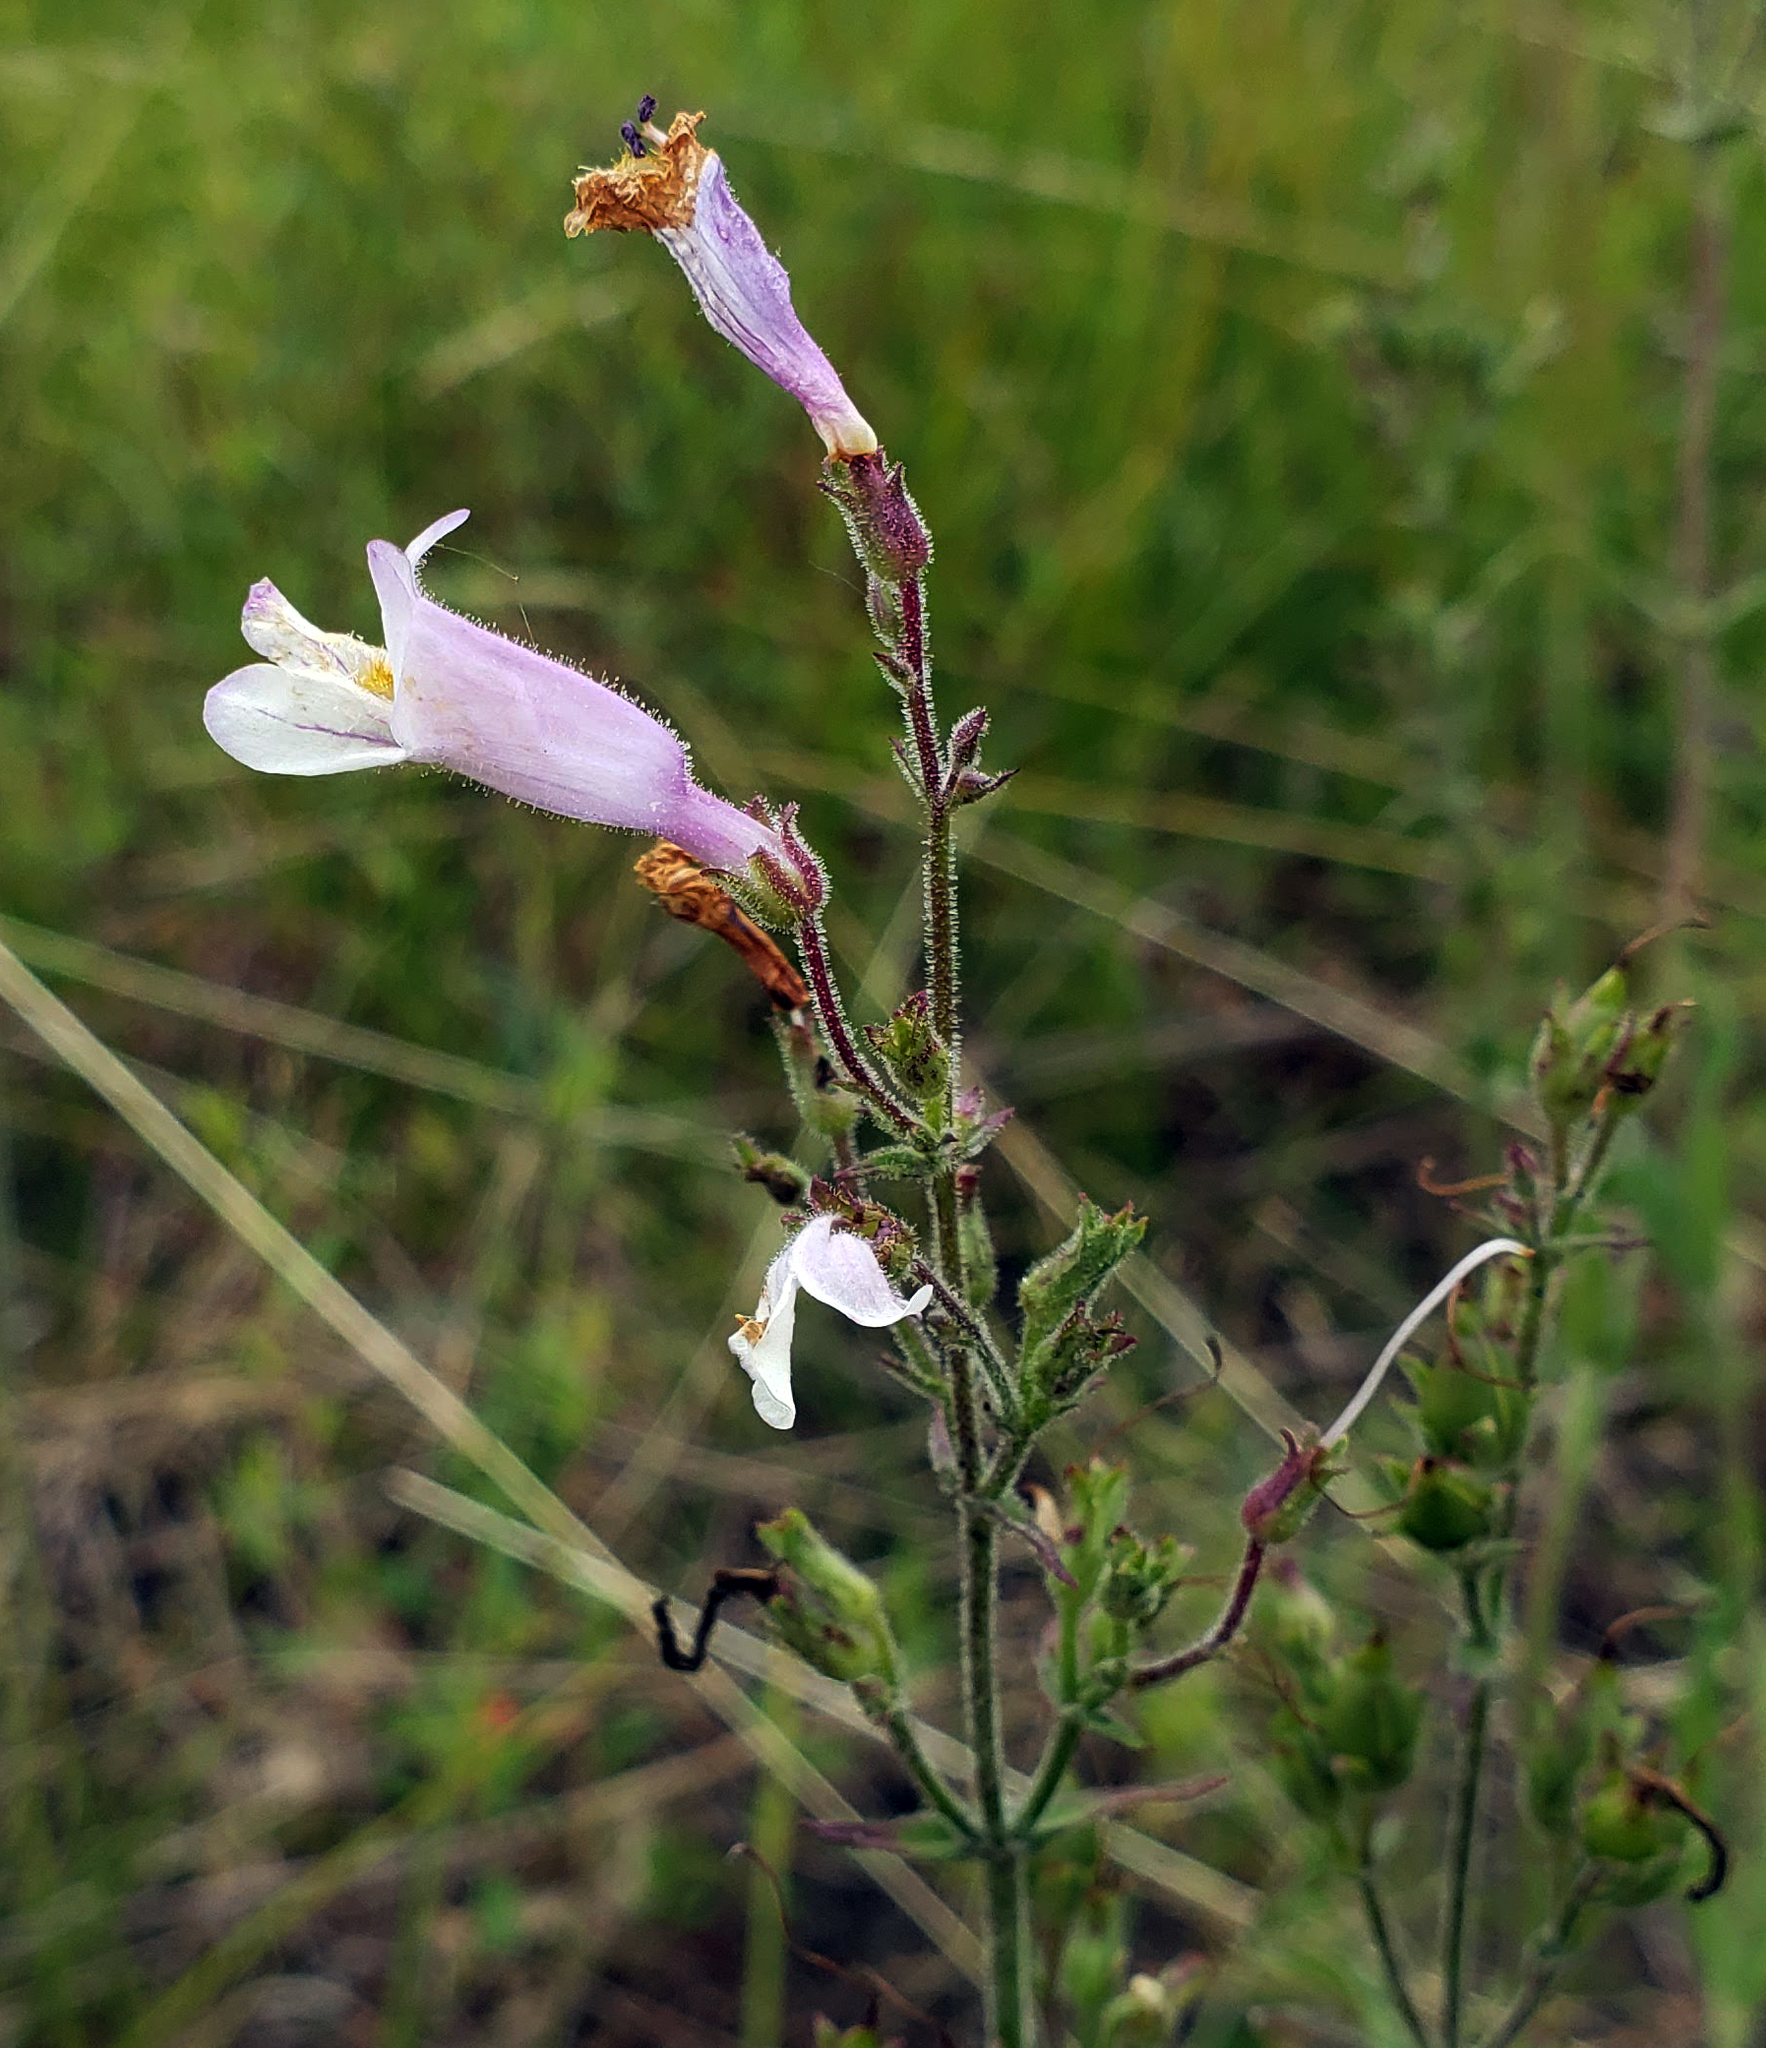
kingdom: Plantae
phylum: Tracheophyta
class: Magnoliopsida
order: Lamiales
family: Plantaginaceae
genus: Penstemon
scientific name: Penstemon gracilis
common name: Slender beardtongue
